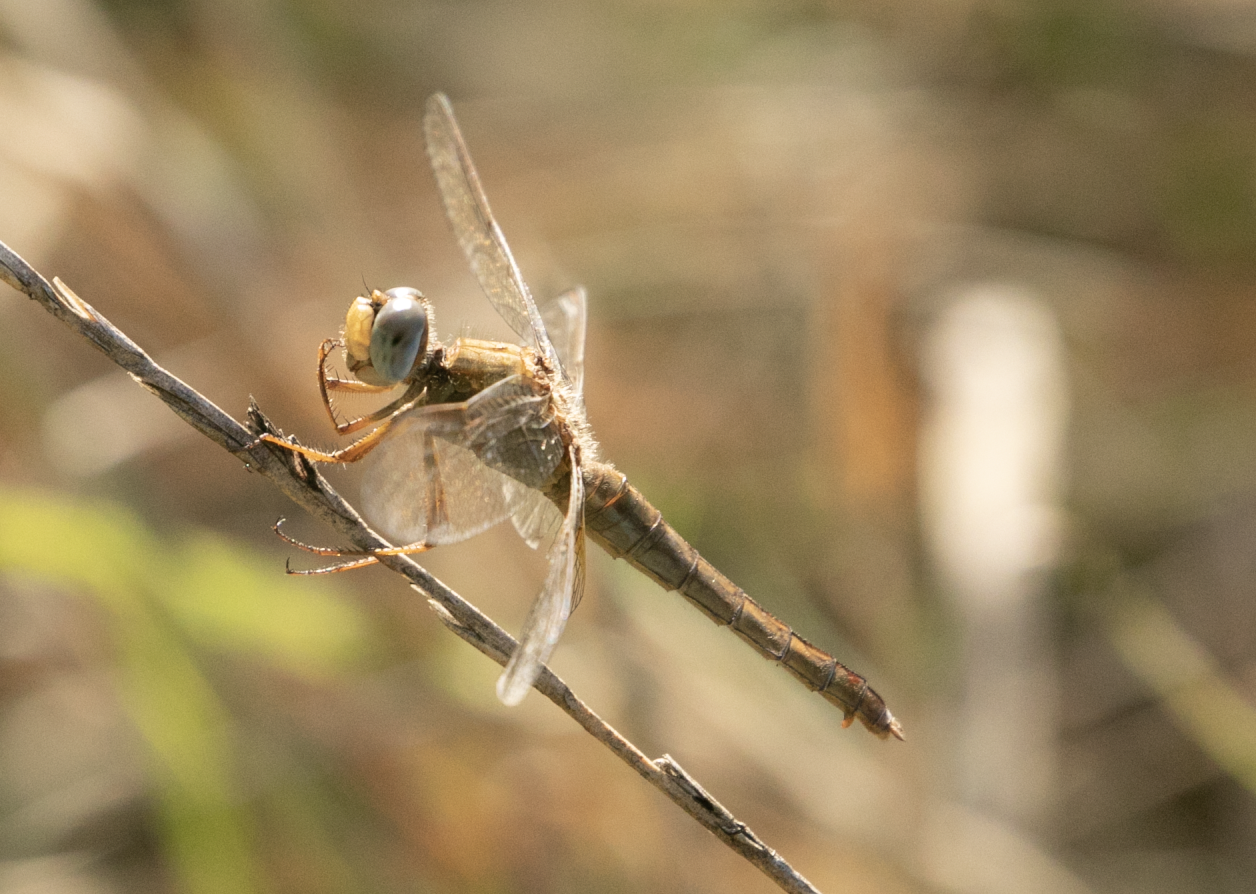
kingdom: Animalia
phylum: Arthropoda
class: Insecta
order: Odonata
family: Libellulidae
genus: Crocothemis
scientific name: Crocothemis erythraea
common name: Scarlet dragonfly
